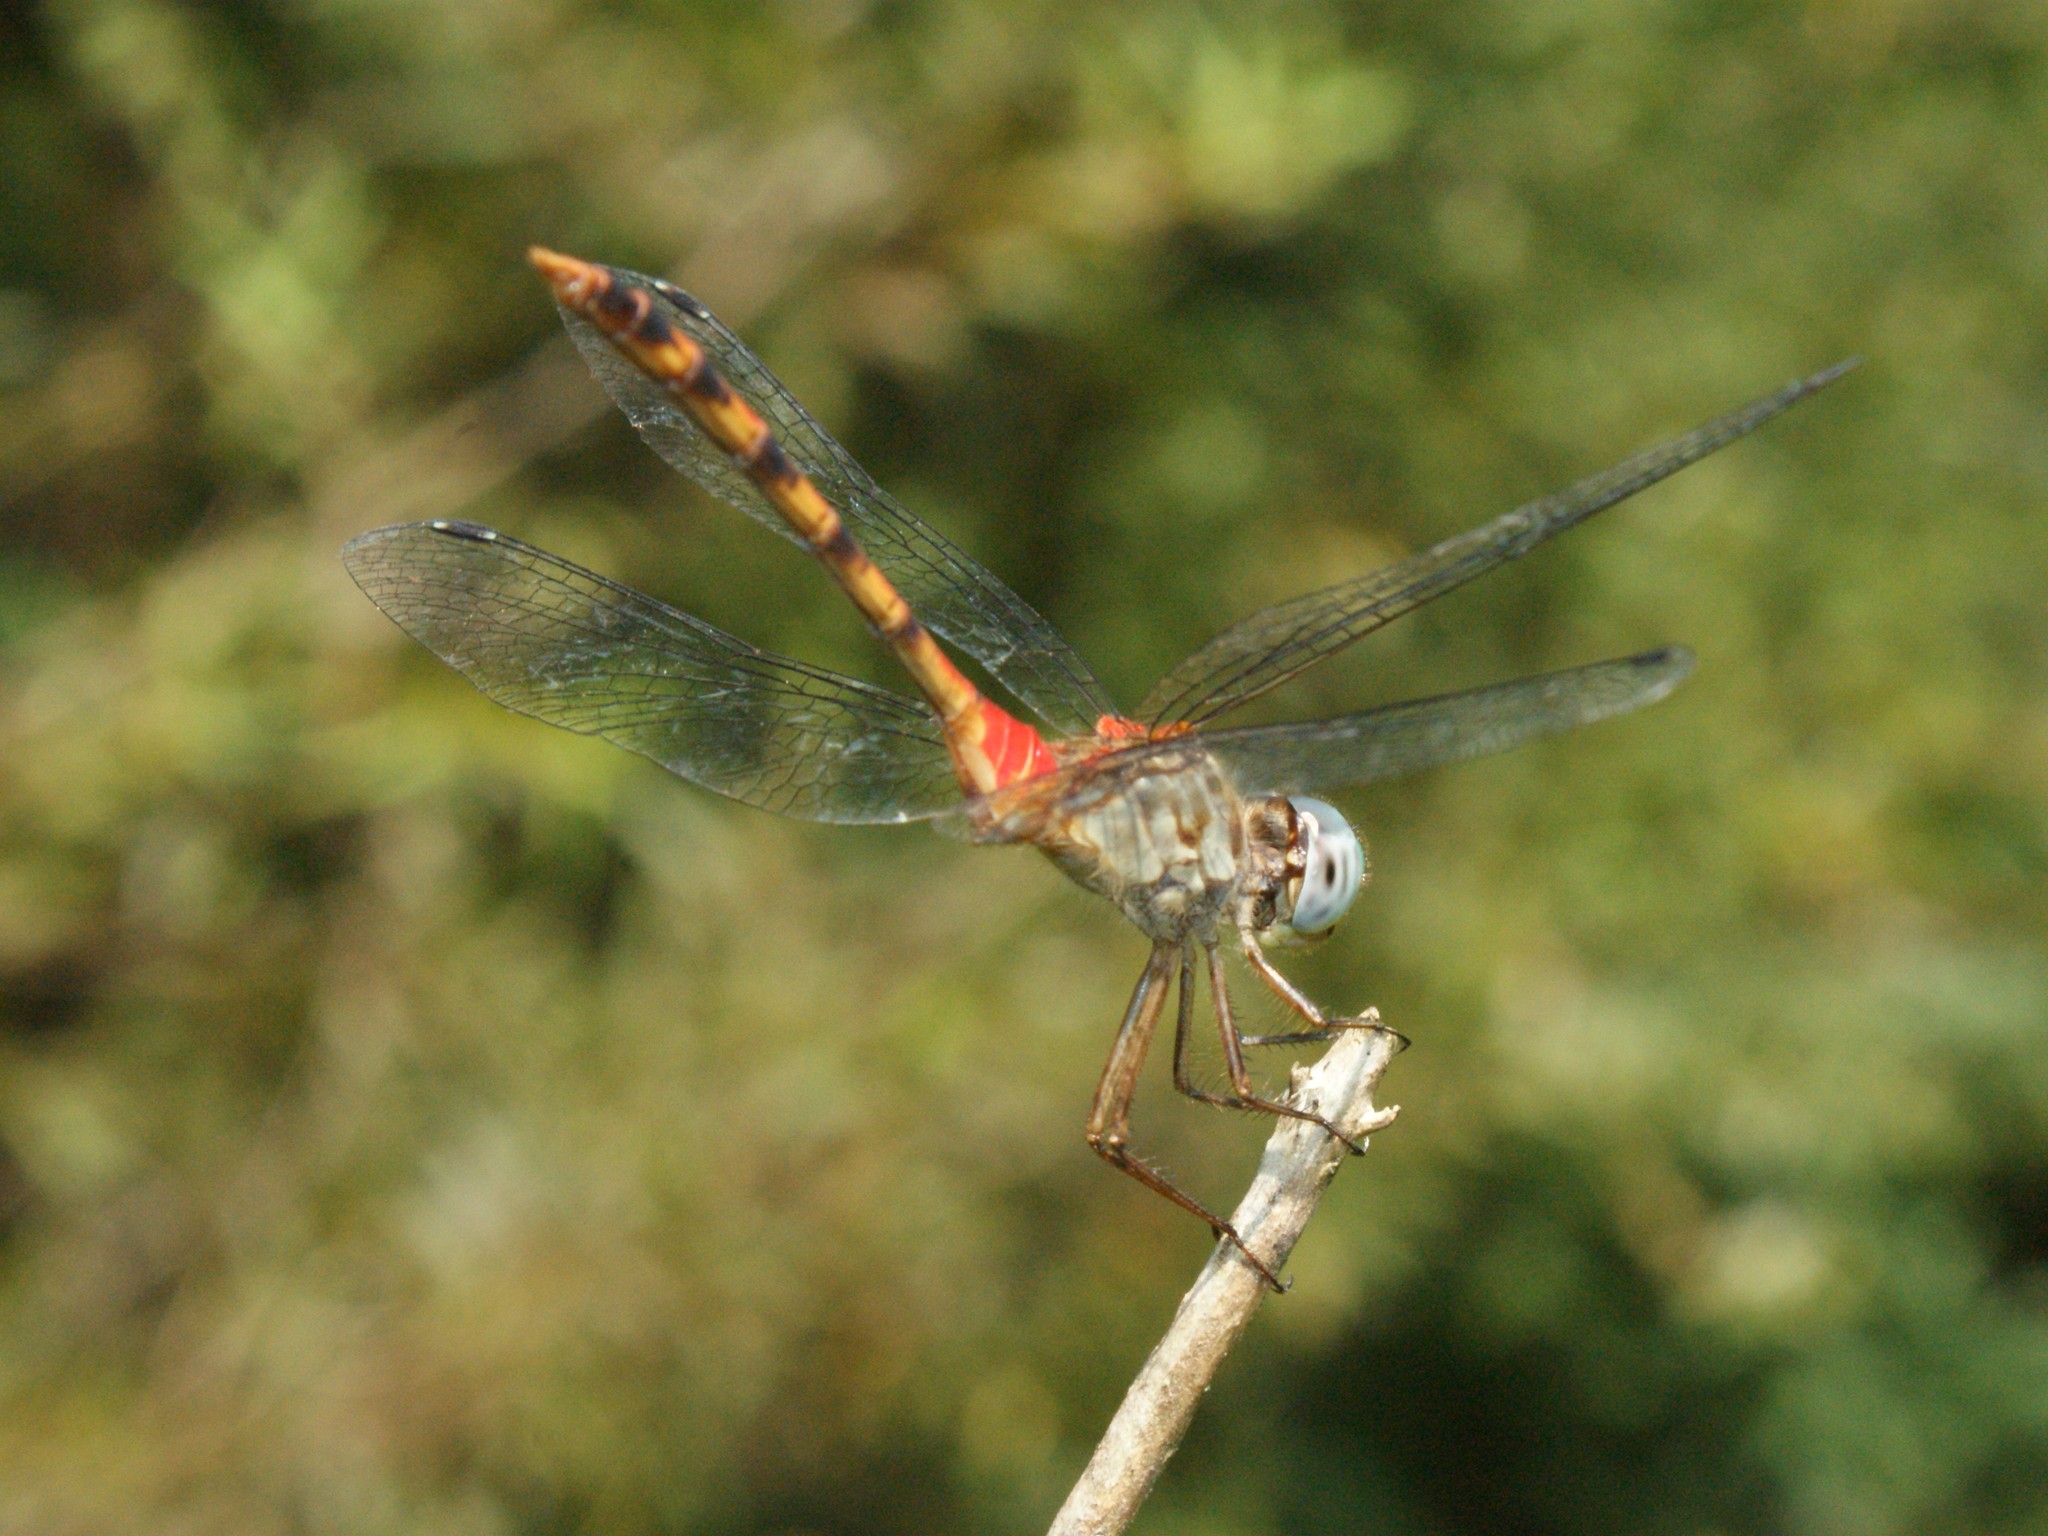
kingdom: Animalia
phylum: Arthropoda
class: Insecta
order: Odonata
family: Libellulidae
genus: Sympetrum
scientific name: Sympetrum ambiguum
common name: Blue-faced meadowhawk
